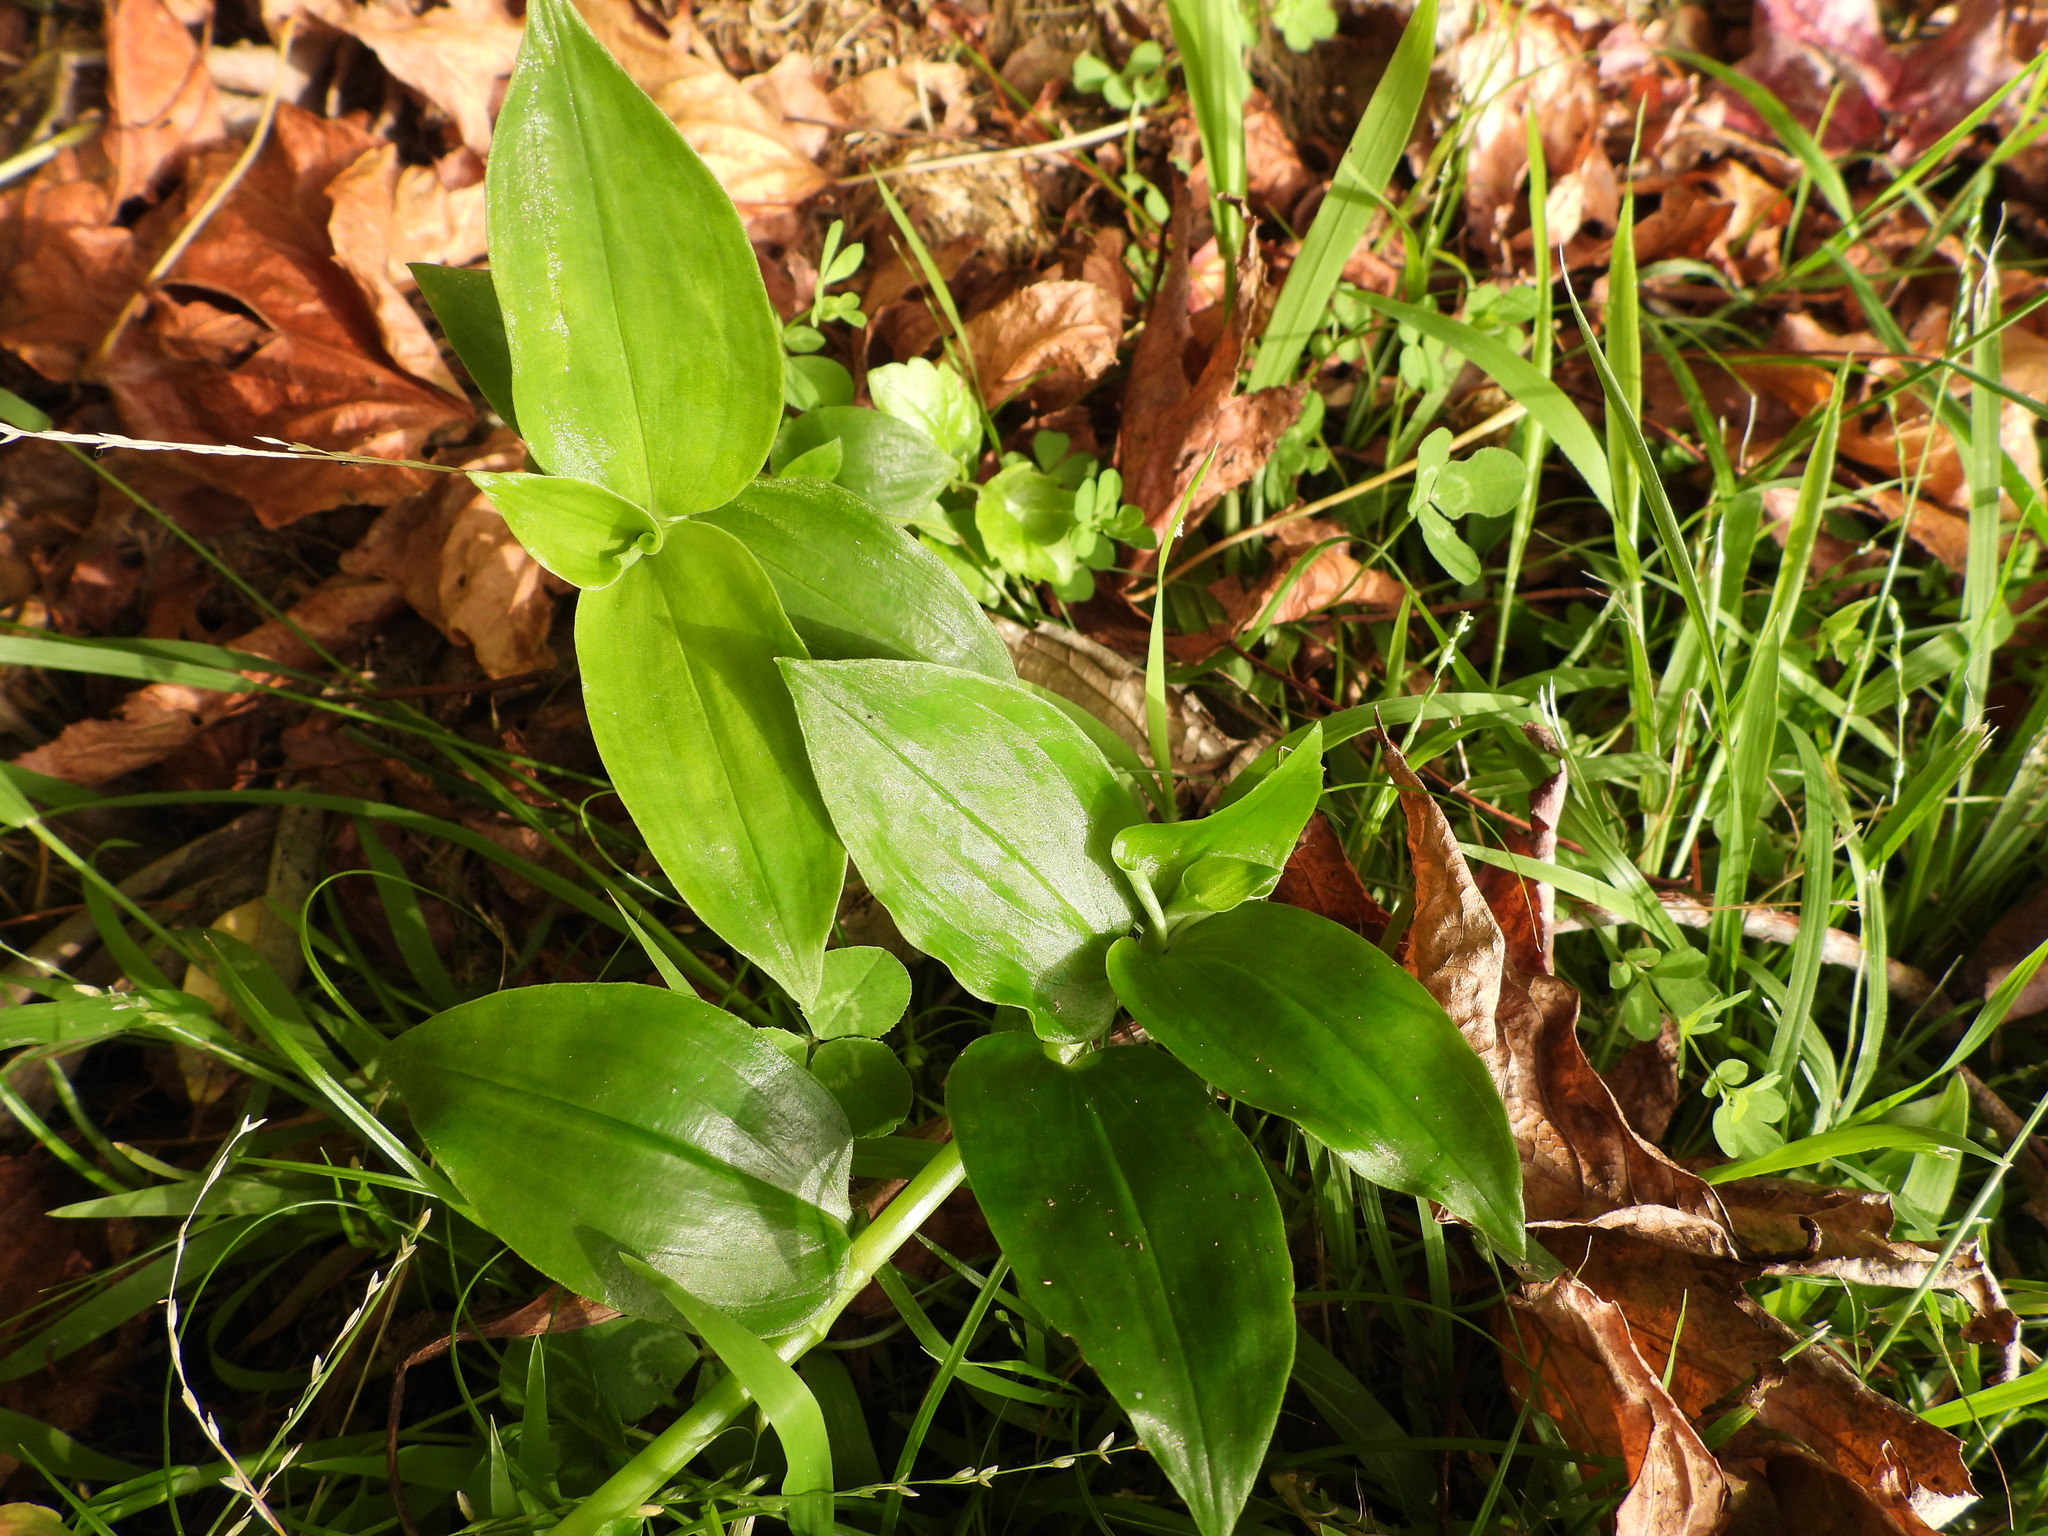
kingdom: Plantae
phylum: Tracheophyta
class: Liliopsida
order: Commelinales
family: Commelinaceae
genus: Tradescantia
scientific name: Tradescantia fluminensis
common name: Wandering-jew
